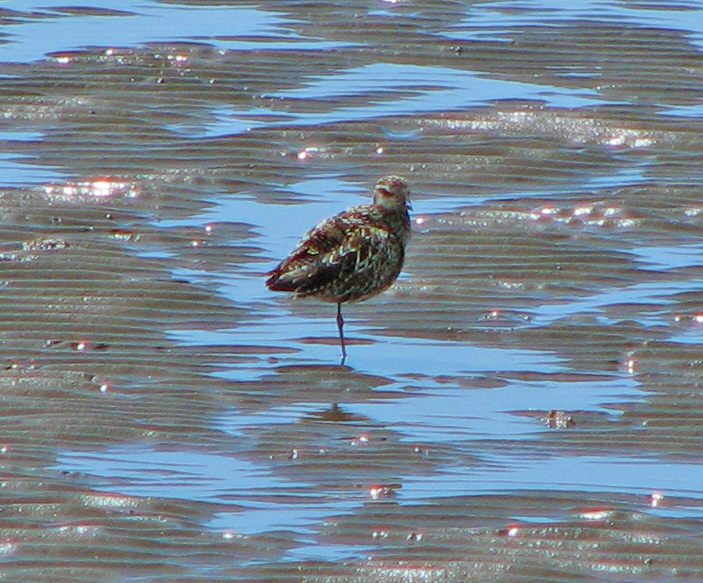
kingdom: Animalia
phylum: Chordata
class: Aves
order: Charadriiformes
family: Charadriidae
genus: Pluvialis
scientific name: Pluvialis fulva
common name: Pacific golden plover
